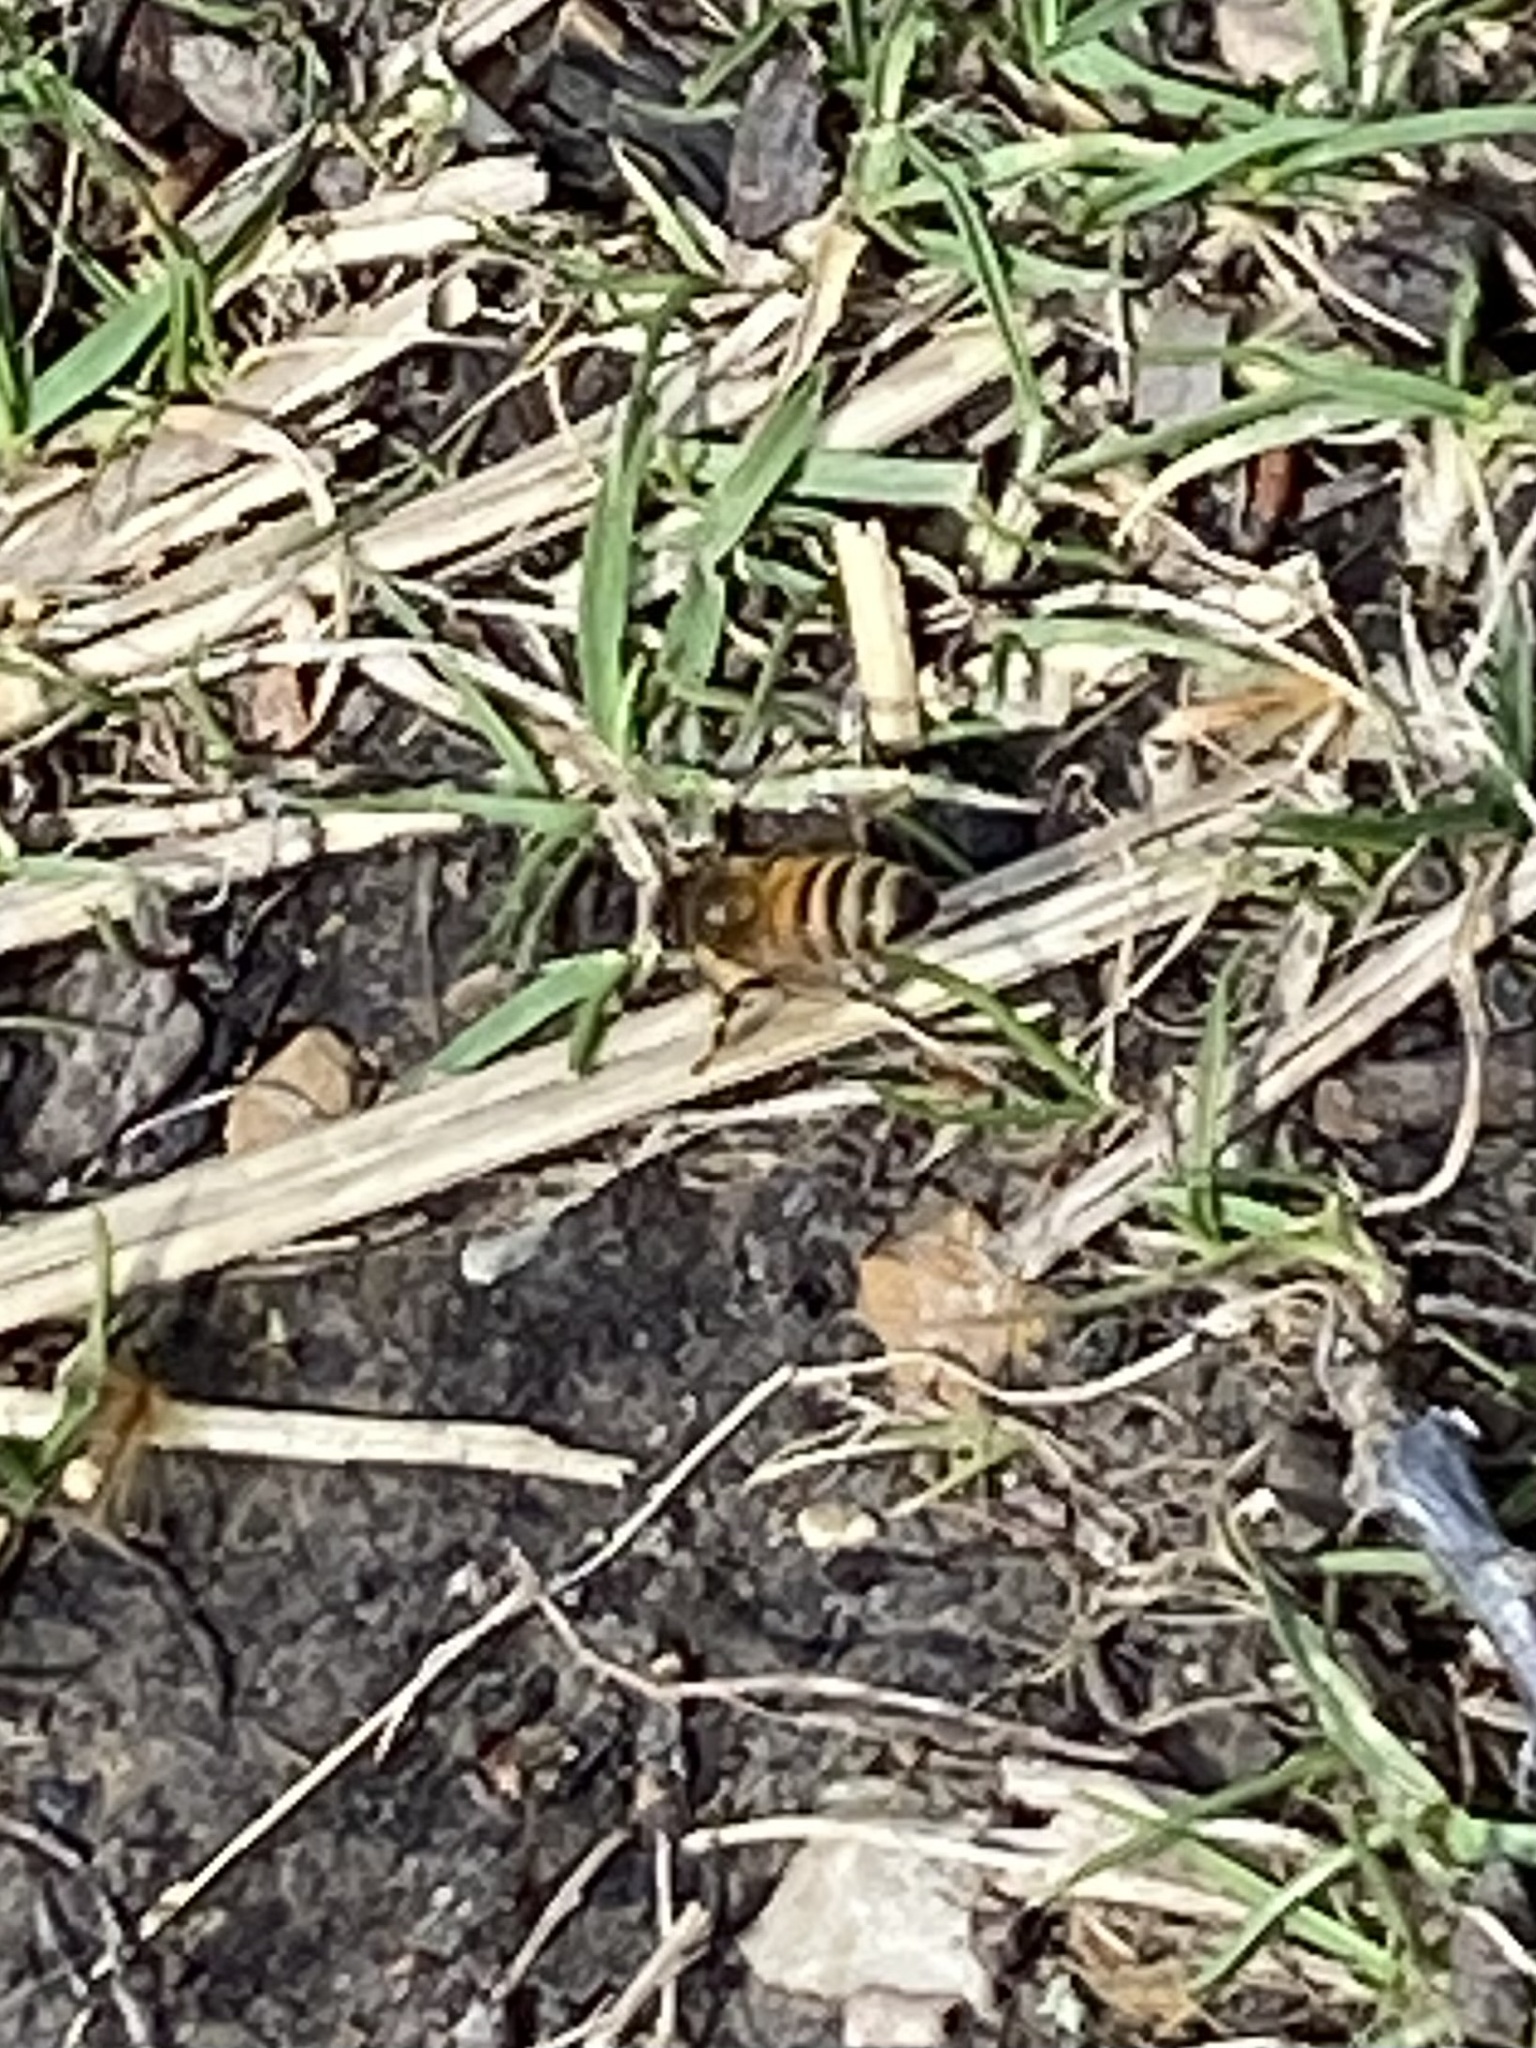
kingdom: Animalia
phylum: Arthropoda
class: Insecta
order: Hymenoptera
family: Apidae
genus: Apis
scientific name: Apis mellifera
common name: Honey bee
